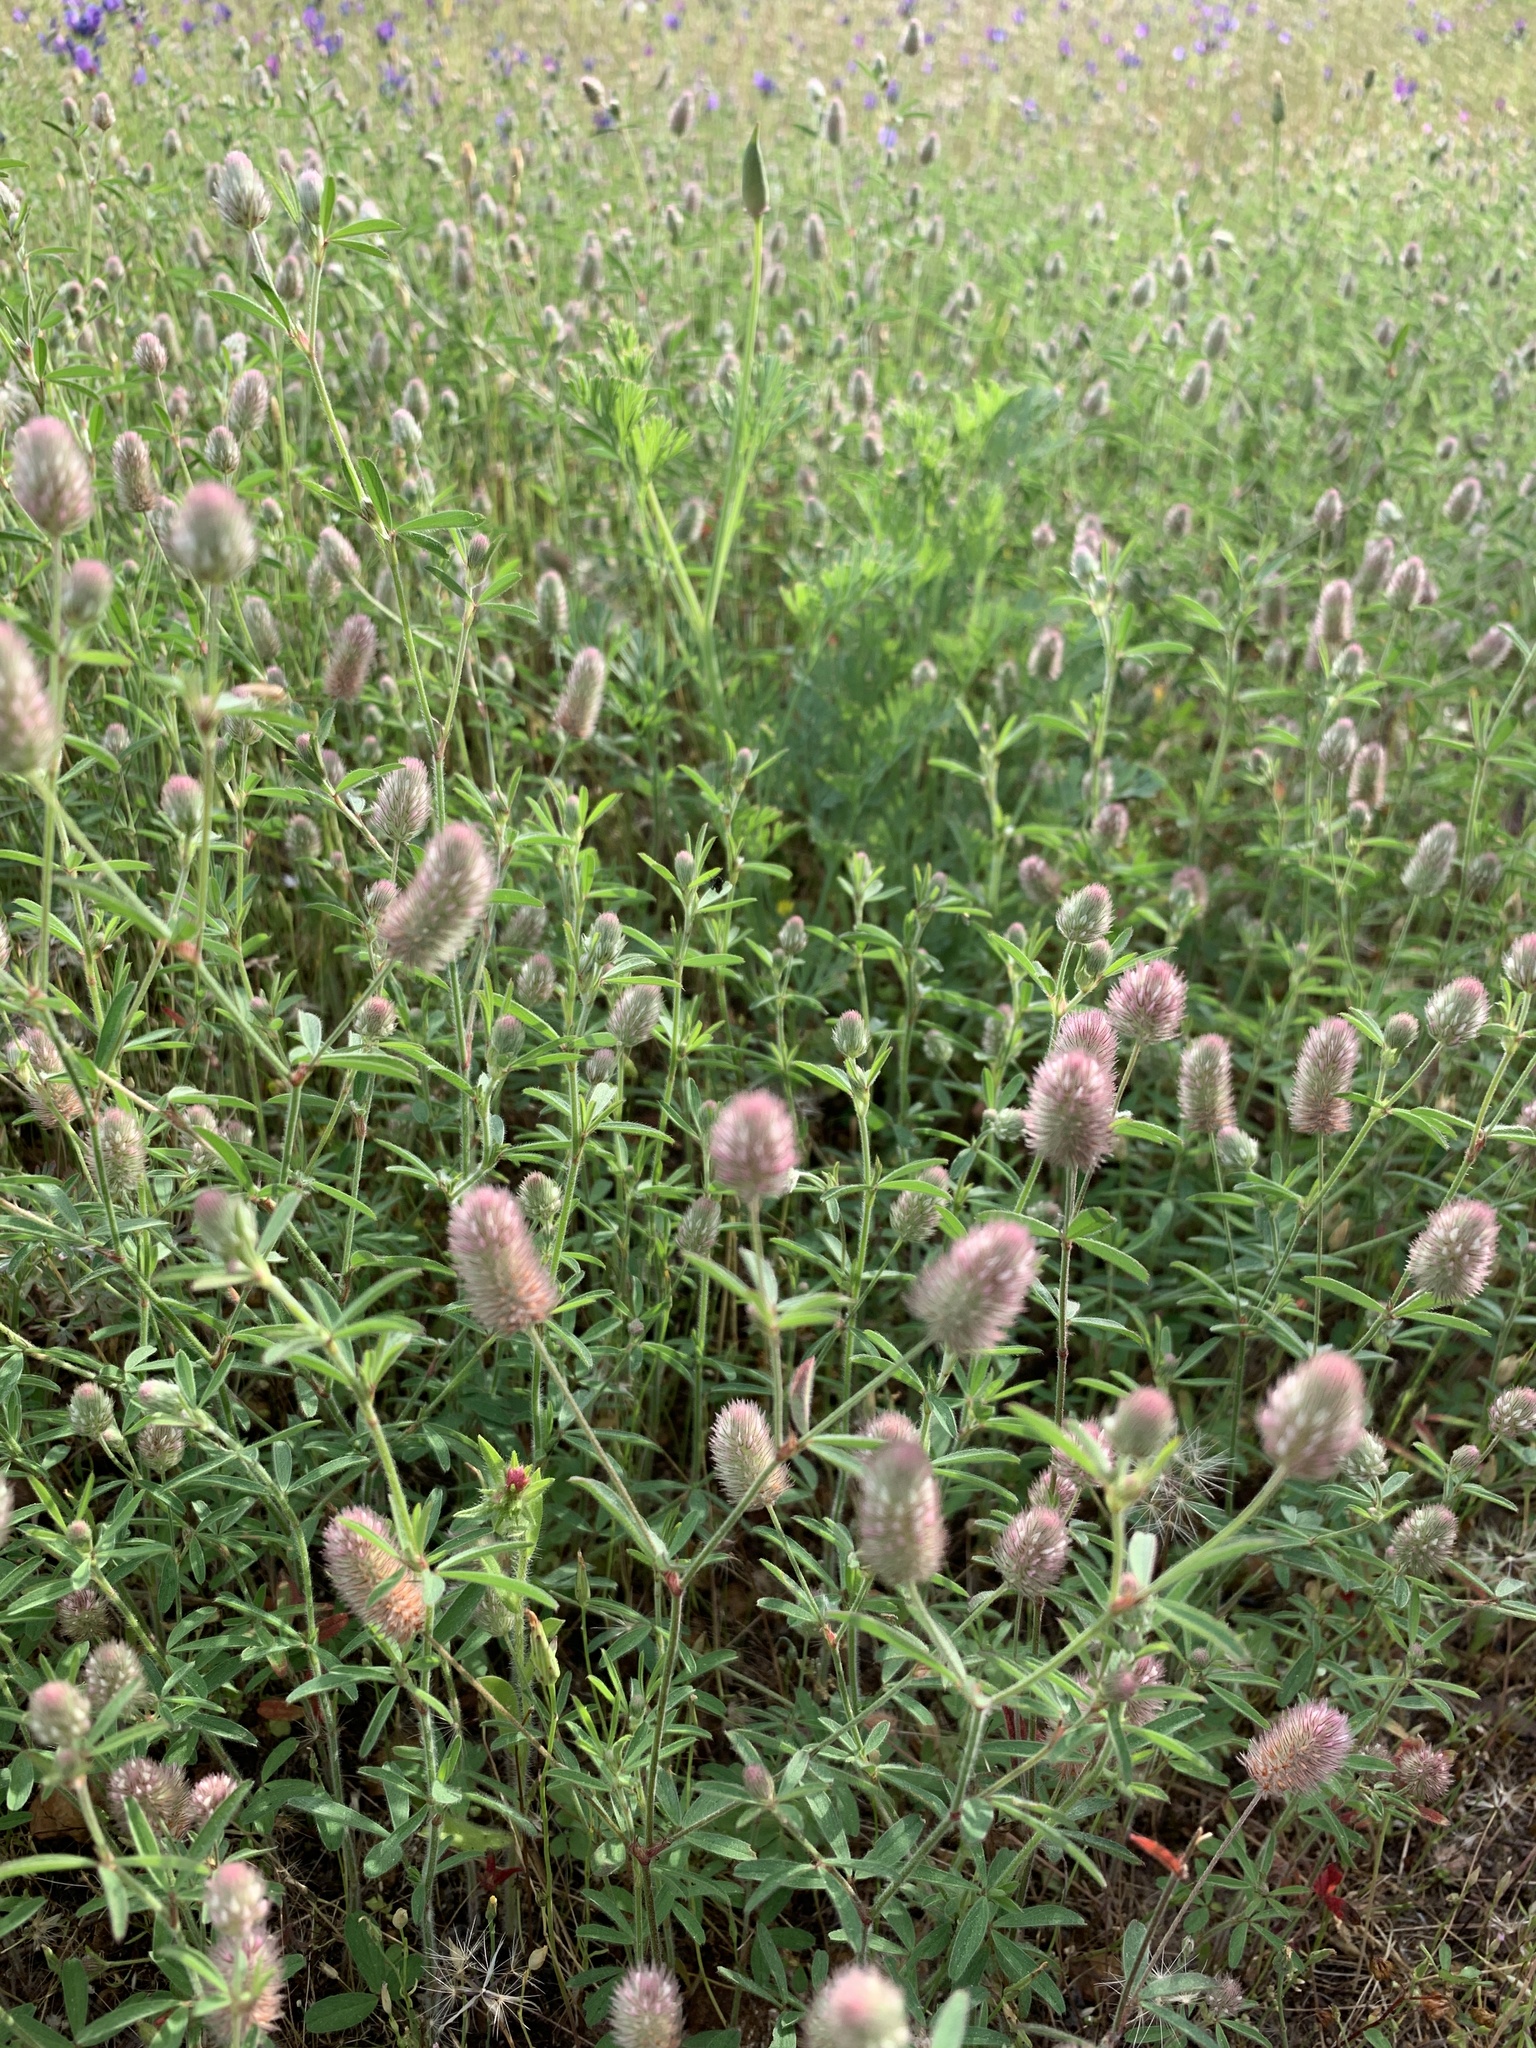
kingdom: Plantae
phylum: Tracheophyta
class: Magnoliopsida
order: Fabales
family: Fabaceae
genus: Trifolium
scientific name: Trifolium arvense
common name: Hare's-foot clover
